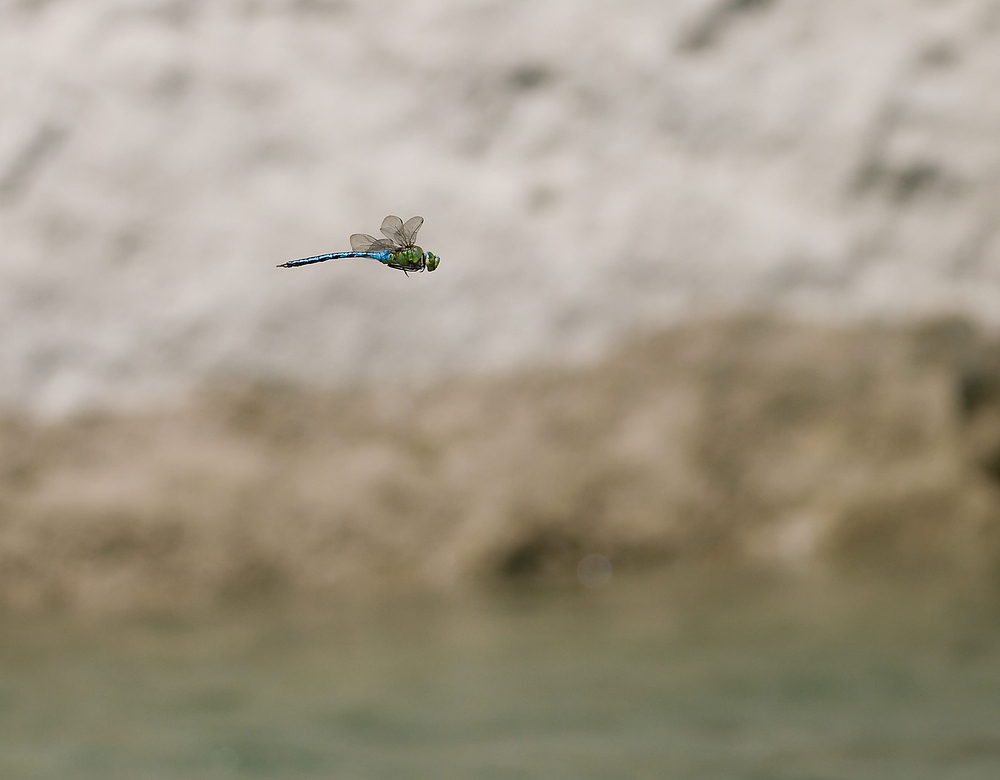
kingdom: Animalia
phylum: Arthropoda
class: Insecta
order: Odonata
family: Aeshnidae
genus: Anax
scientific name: Anax imperator
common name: Emperor dragonfly
